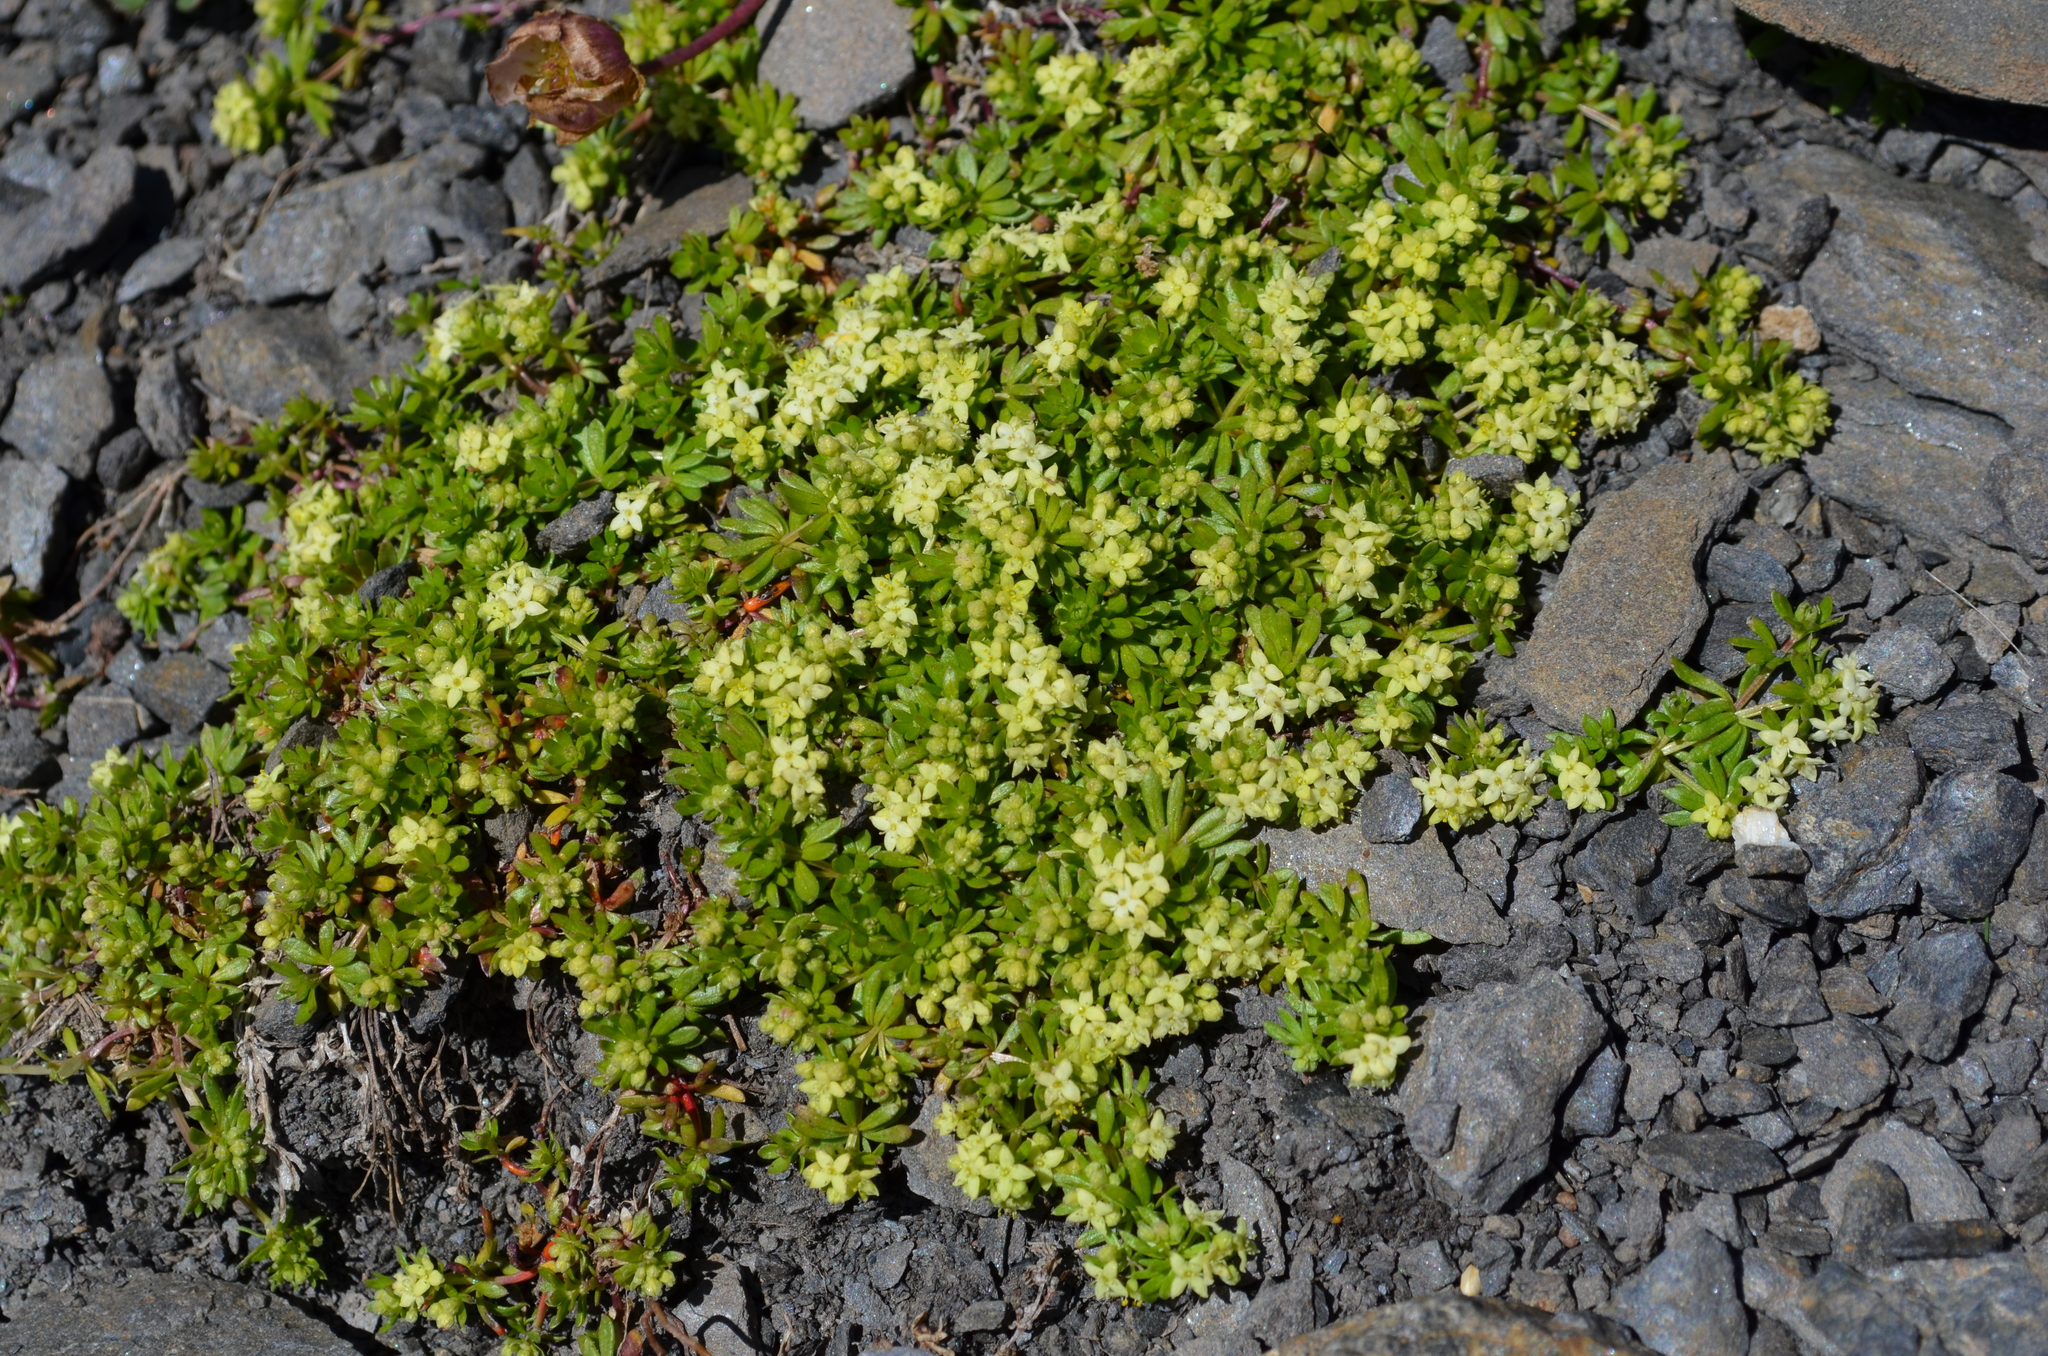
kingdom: Plantae
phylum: Tracheophyta
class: Magnoliopsida
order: Gentianales
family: Rubiaceae
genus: Galium
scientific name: Galium megalospermum
